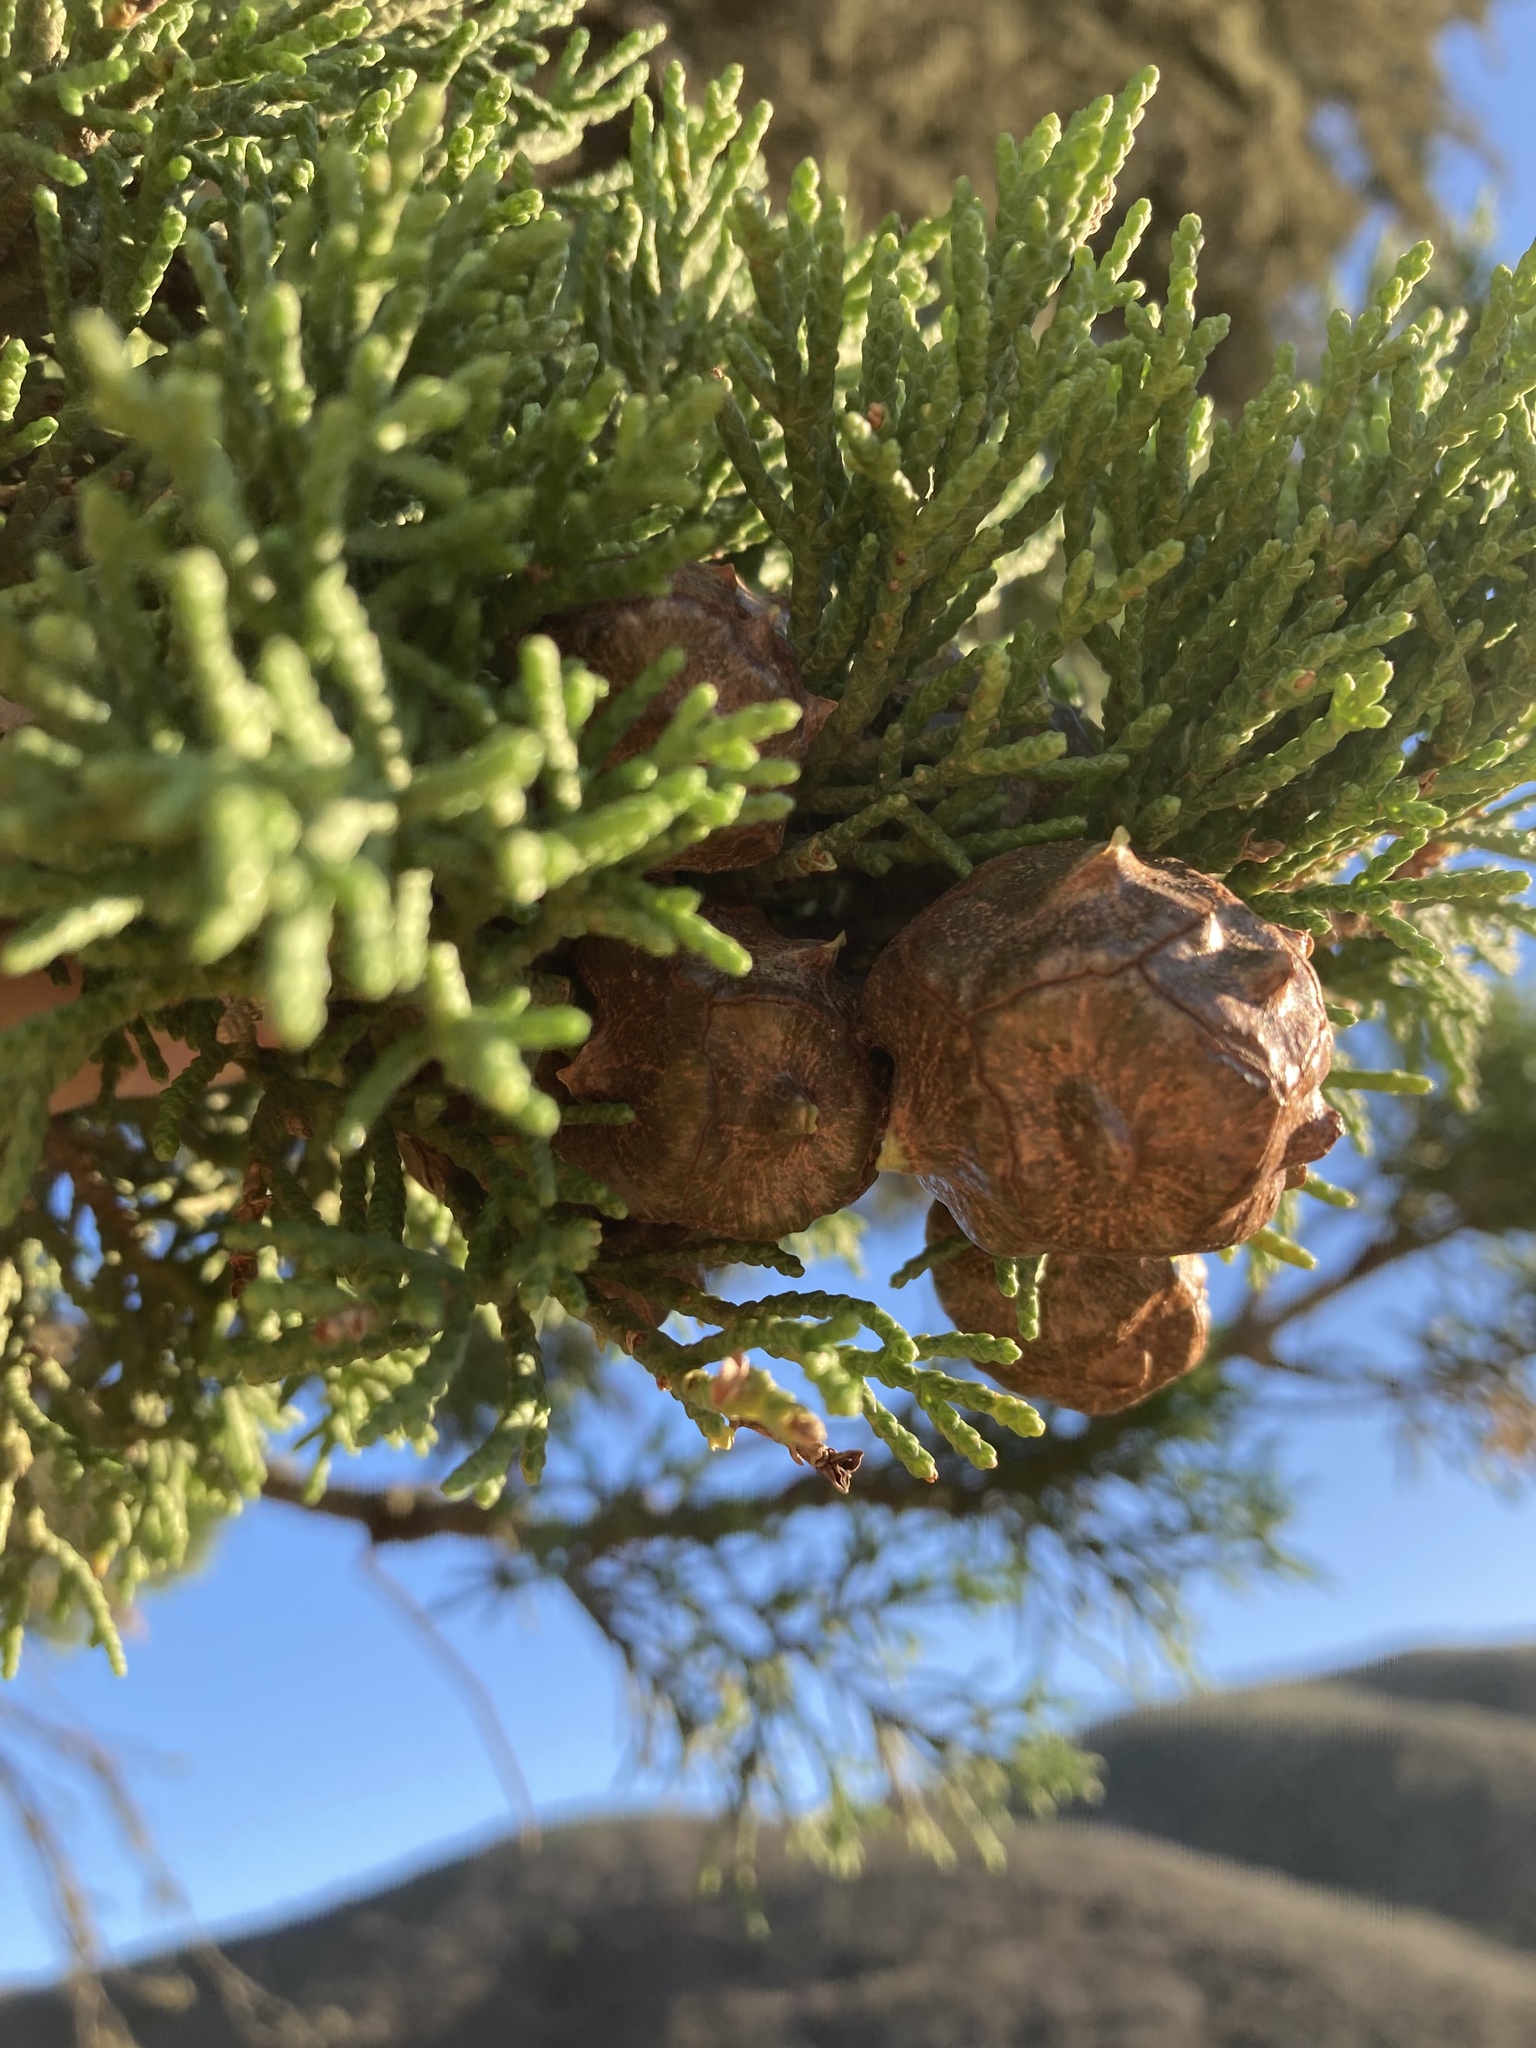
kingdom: Plantae
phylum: Tracheophyta
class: Pinopsida
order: Pinales
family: Cupressaceae
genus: Cupressus
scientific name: Cupressus macrocarpa
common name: Monterey cypress
